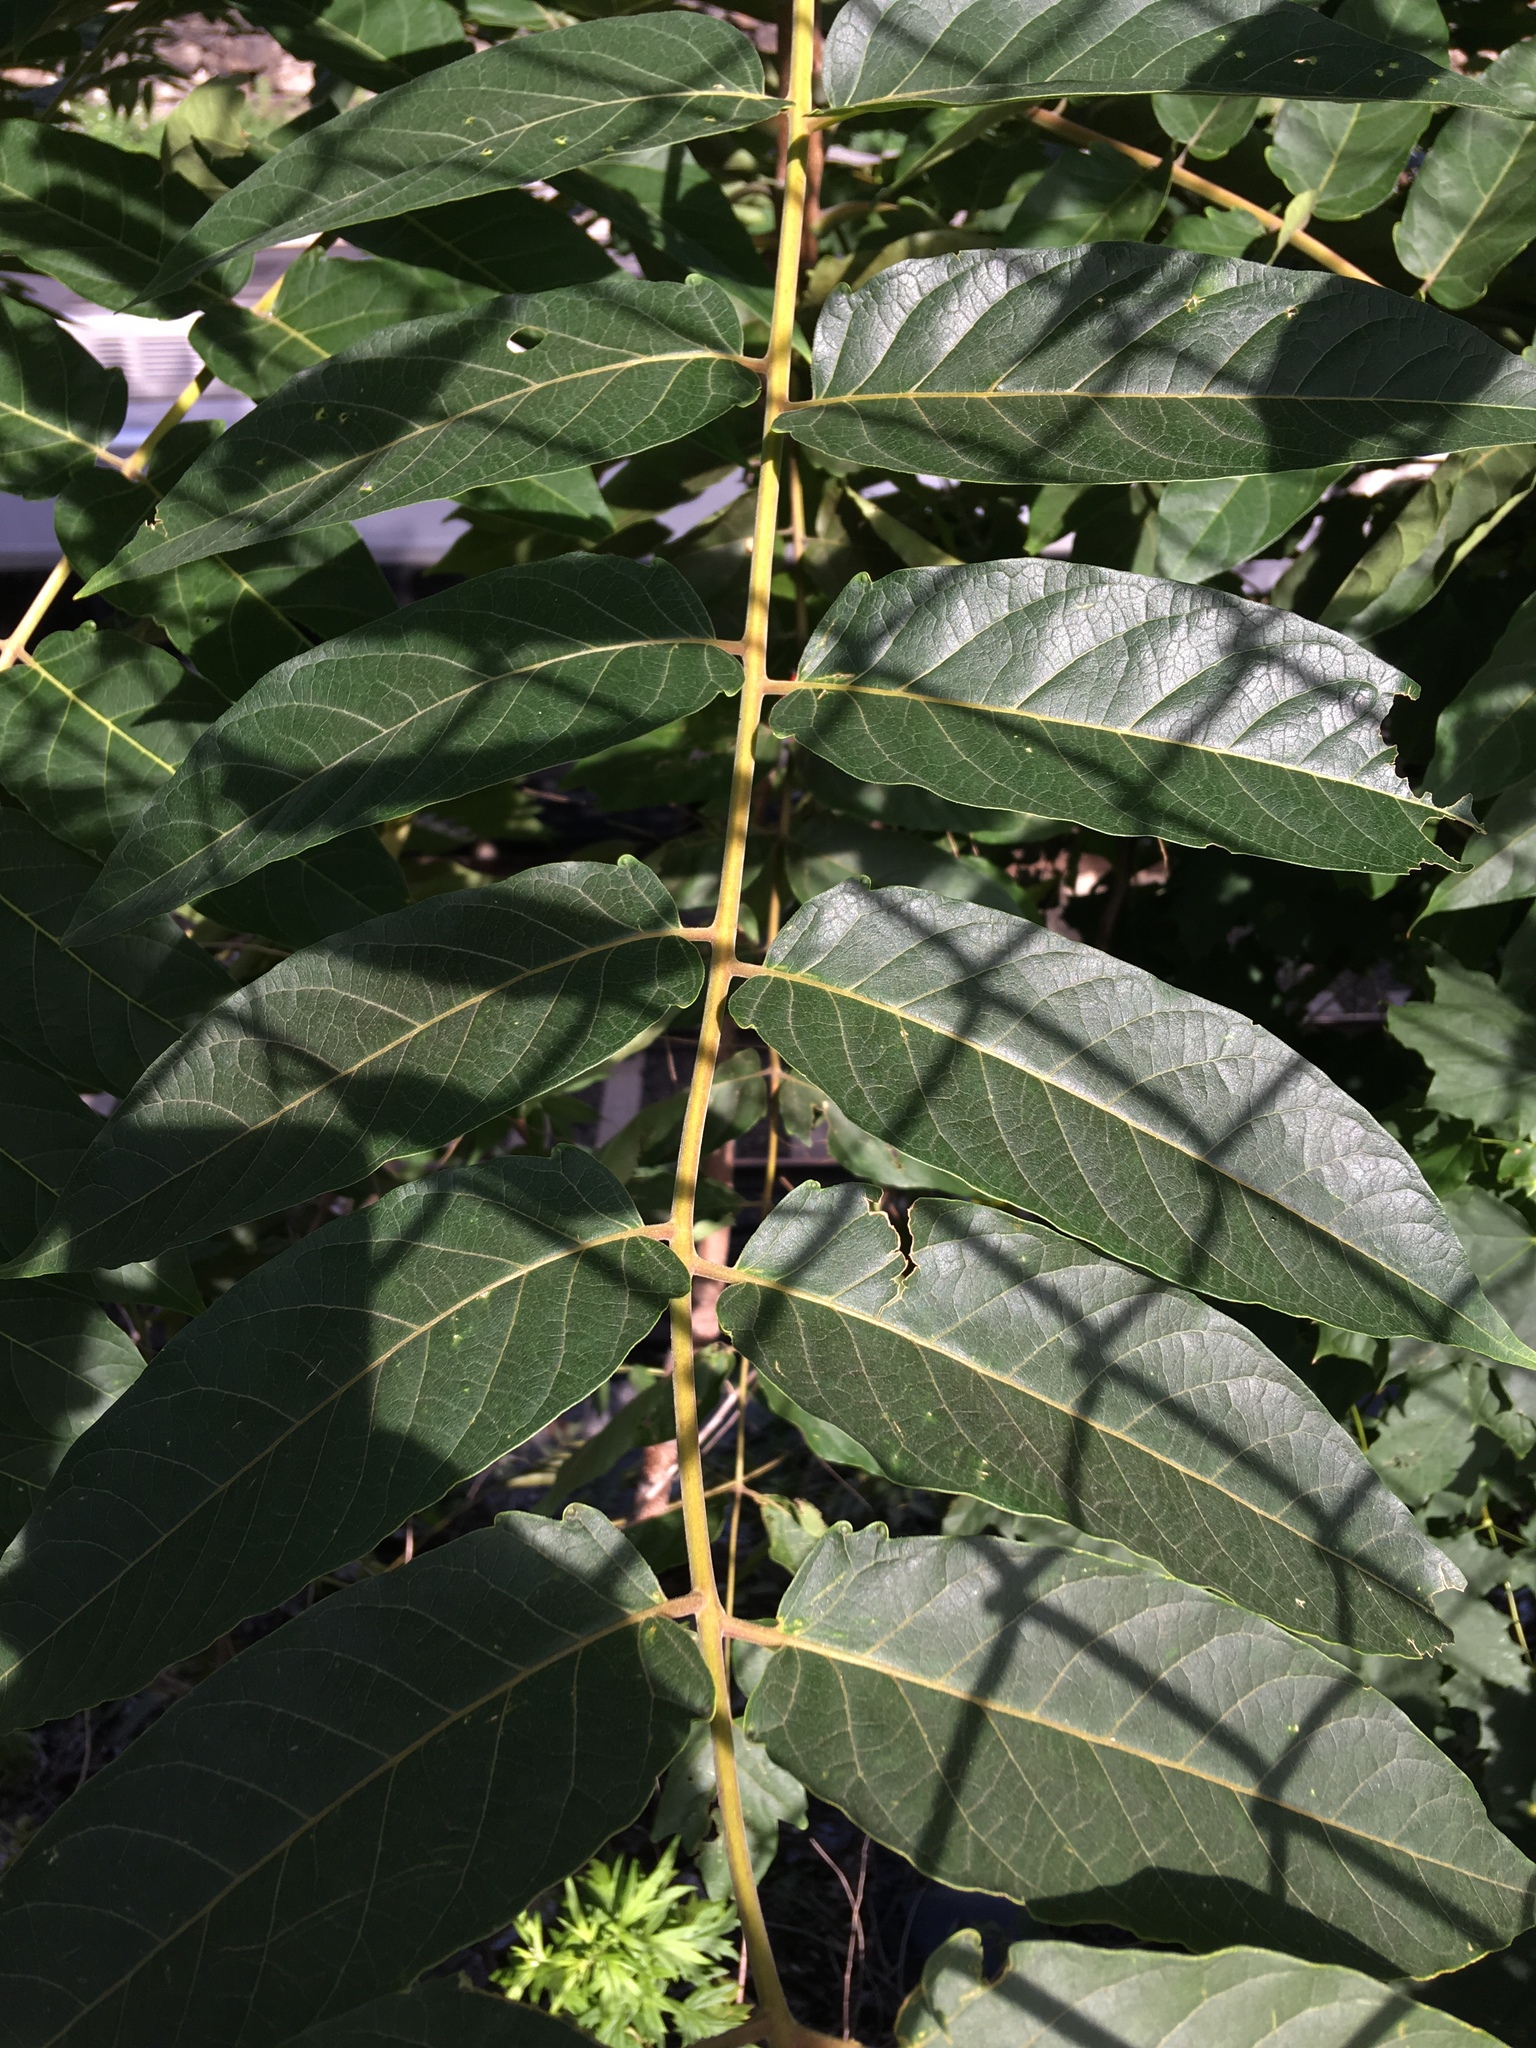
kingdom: Plantae
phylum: Tracheophyta
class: Magnoliopsida
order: Sapindales
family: Simaroubaceae
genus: Ailanthus
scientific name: Ailanthus altissima
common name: Tree-of-heaven
